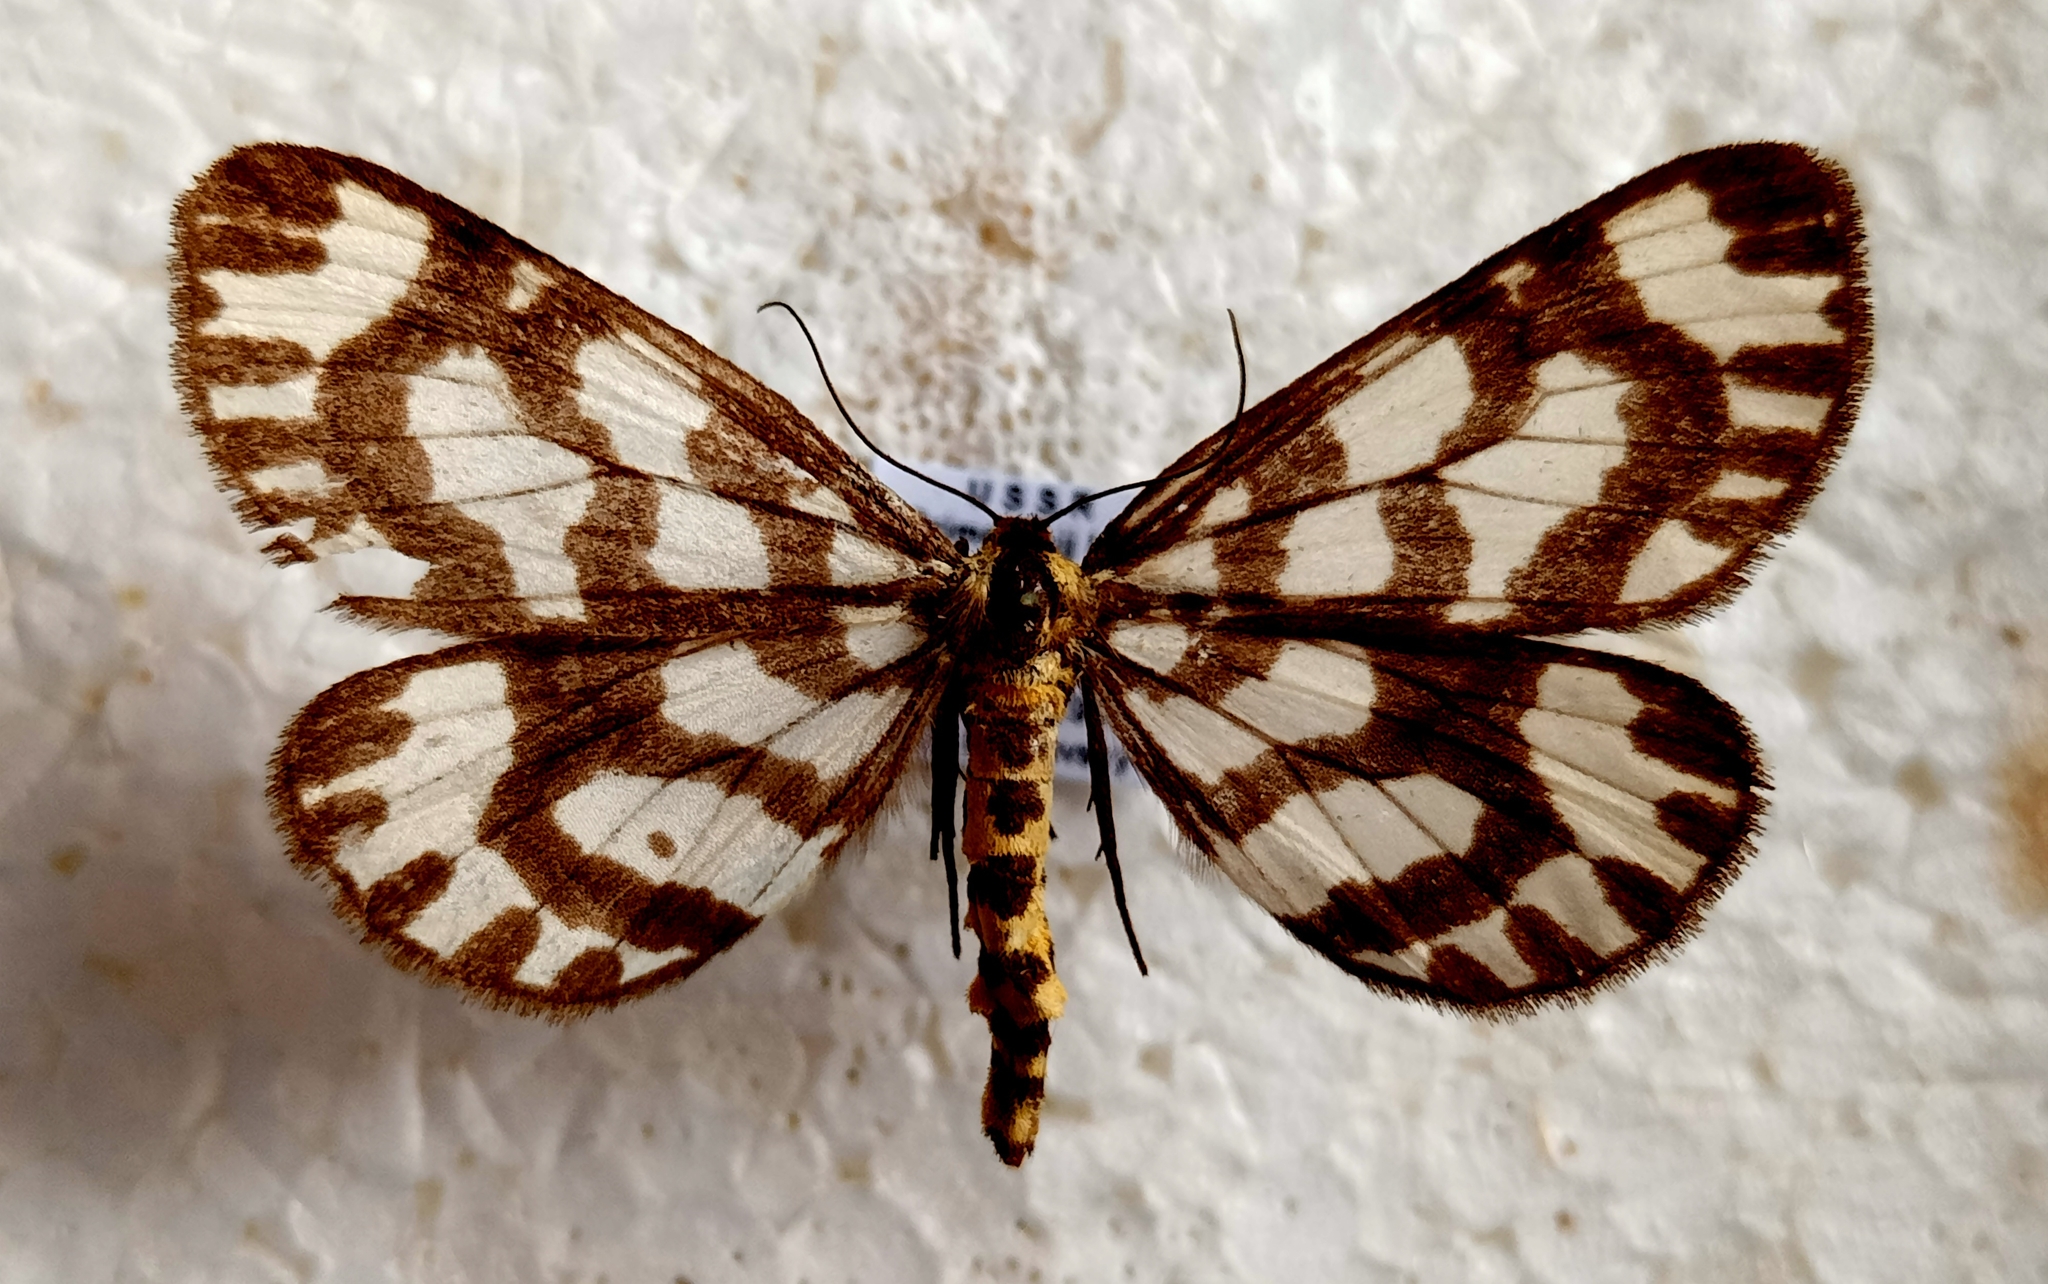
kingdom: Animalia
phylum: Arthropoda
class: Insecta
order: Lepidoptera
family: Geometridae
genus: Cystidia
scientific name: Cystidia couaggaria
